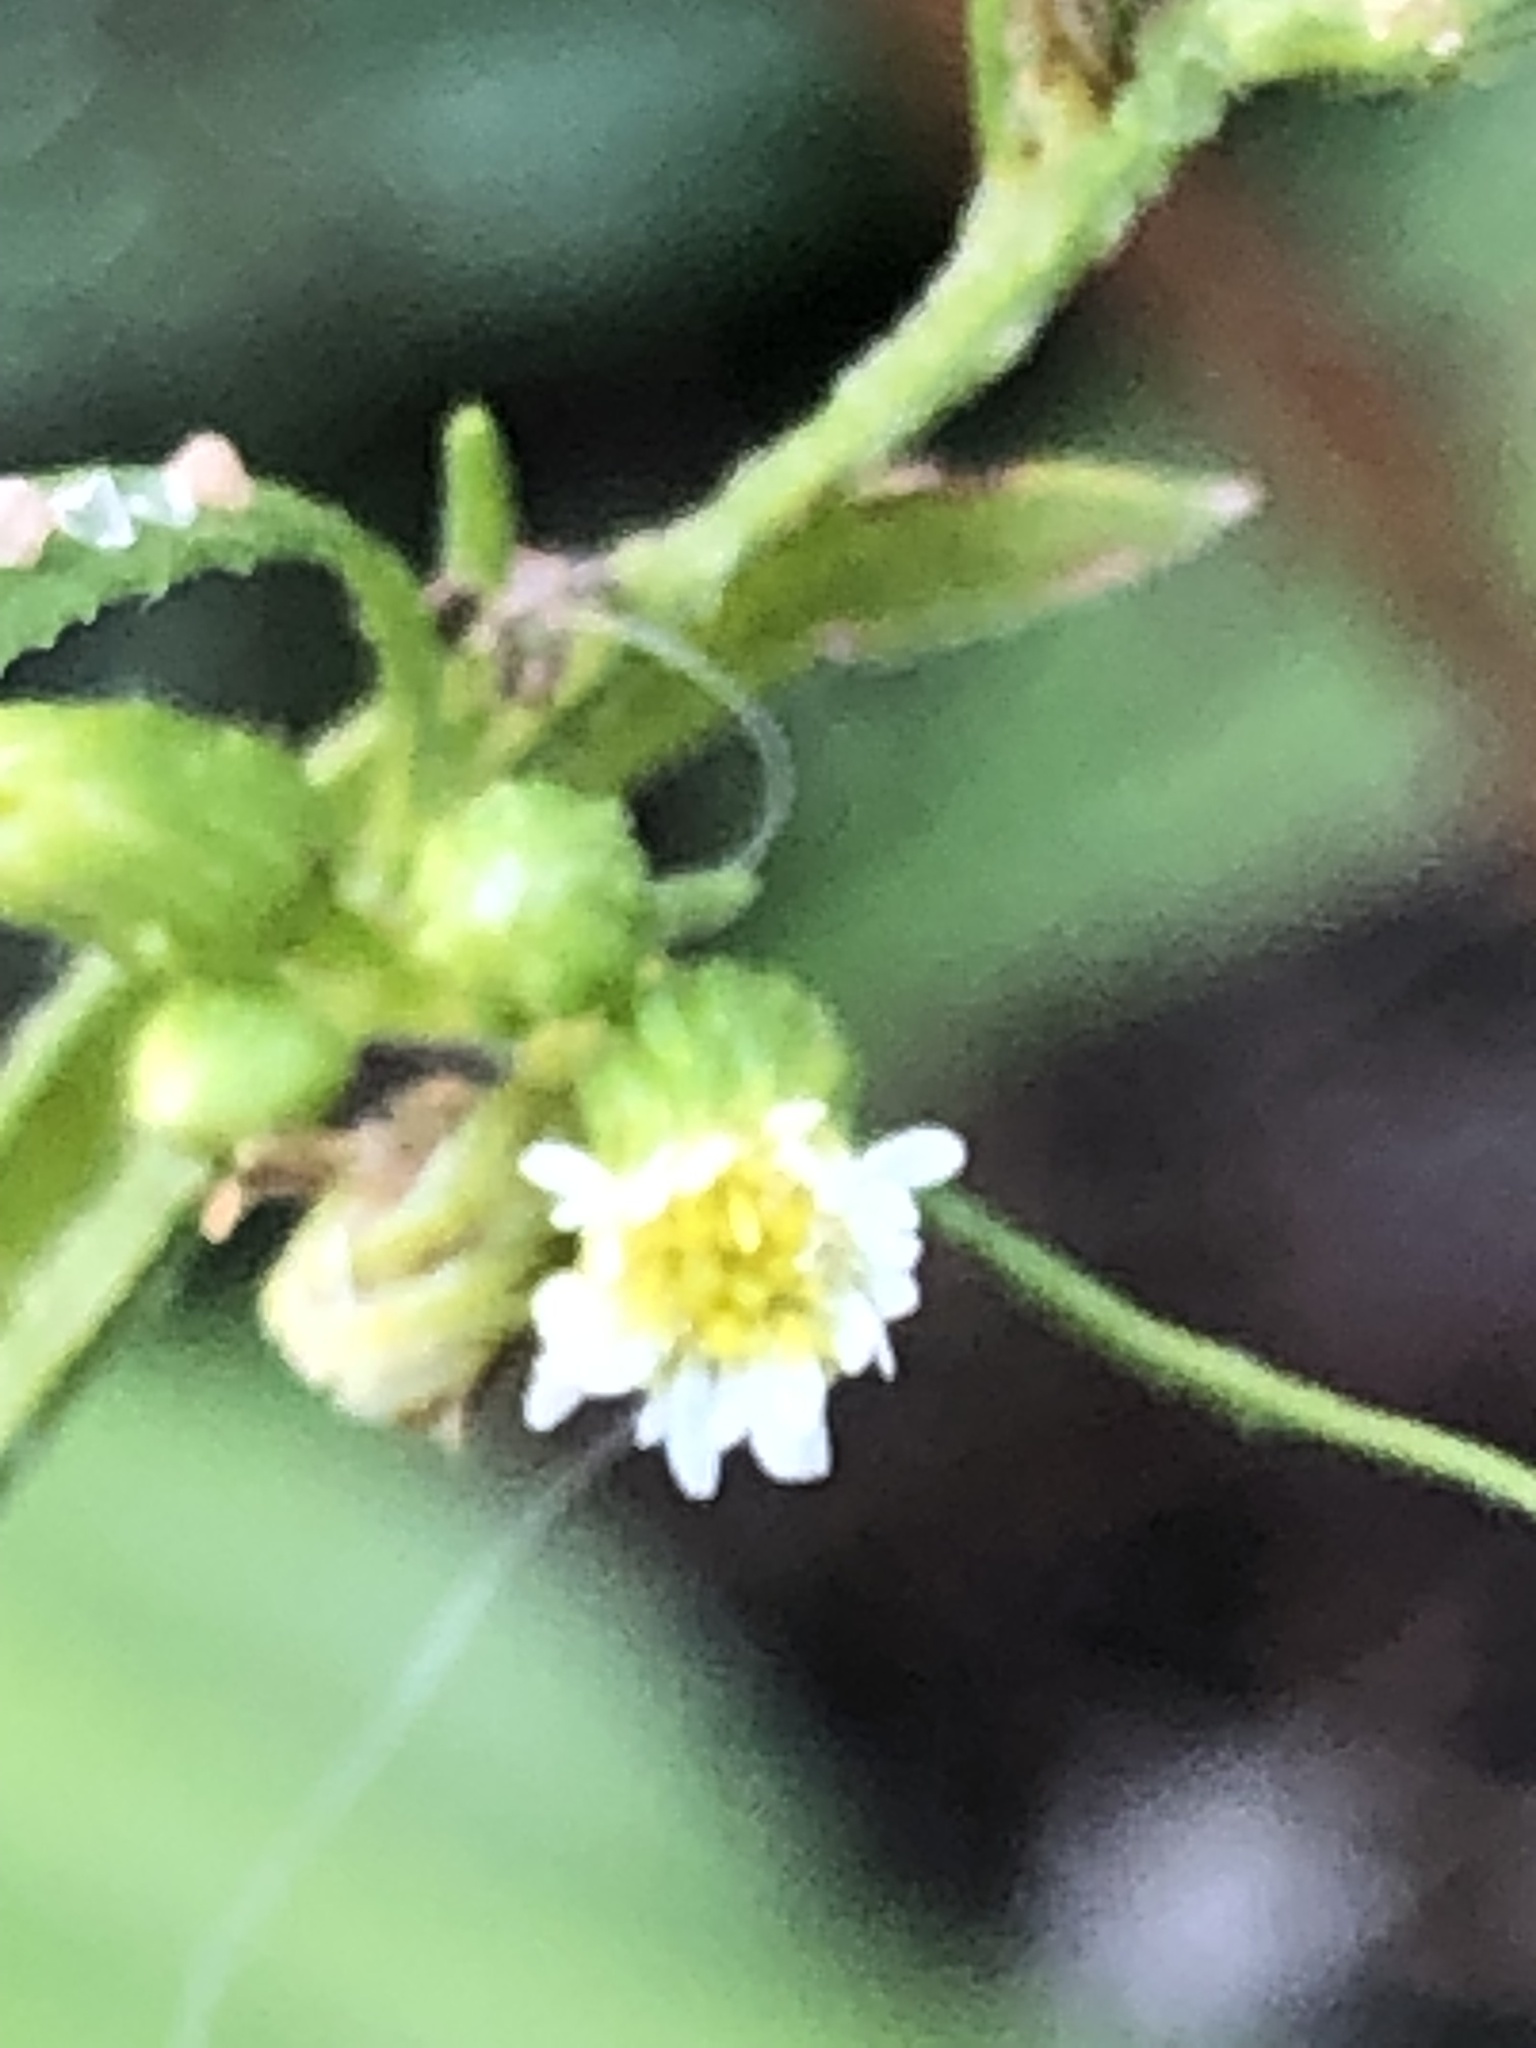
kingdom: Plantae
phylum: Tracheophyta
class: Magnoliopsida
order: Asterales
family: Asteraceae
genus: Erigeron
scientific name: Erigeron canadensis
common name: Canadian fleabane
